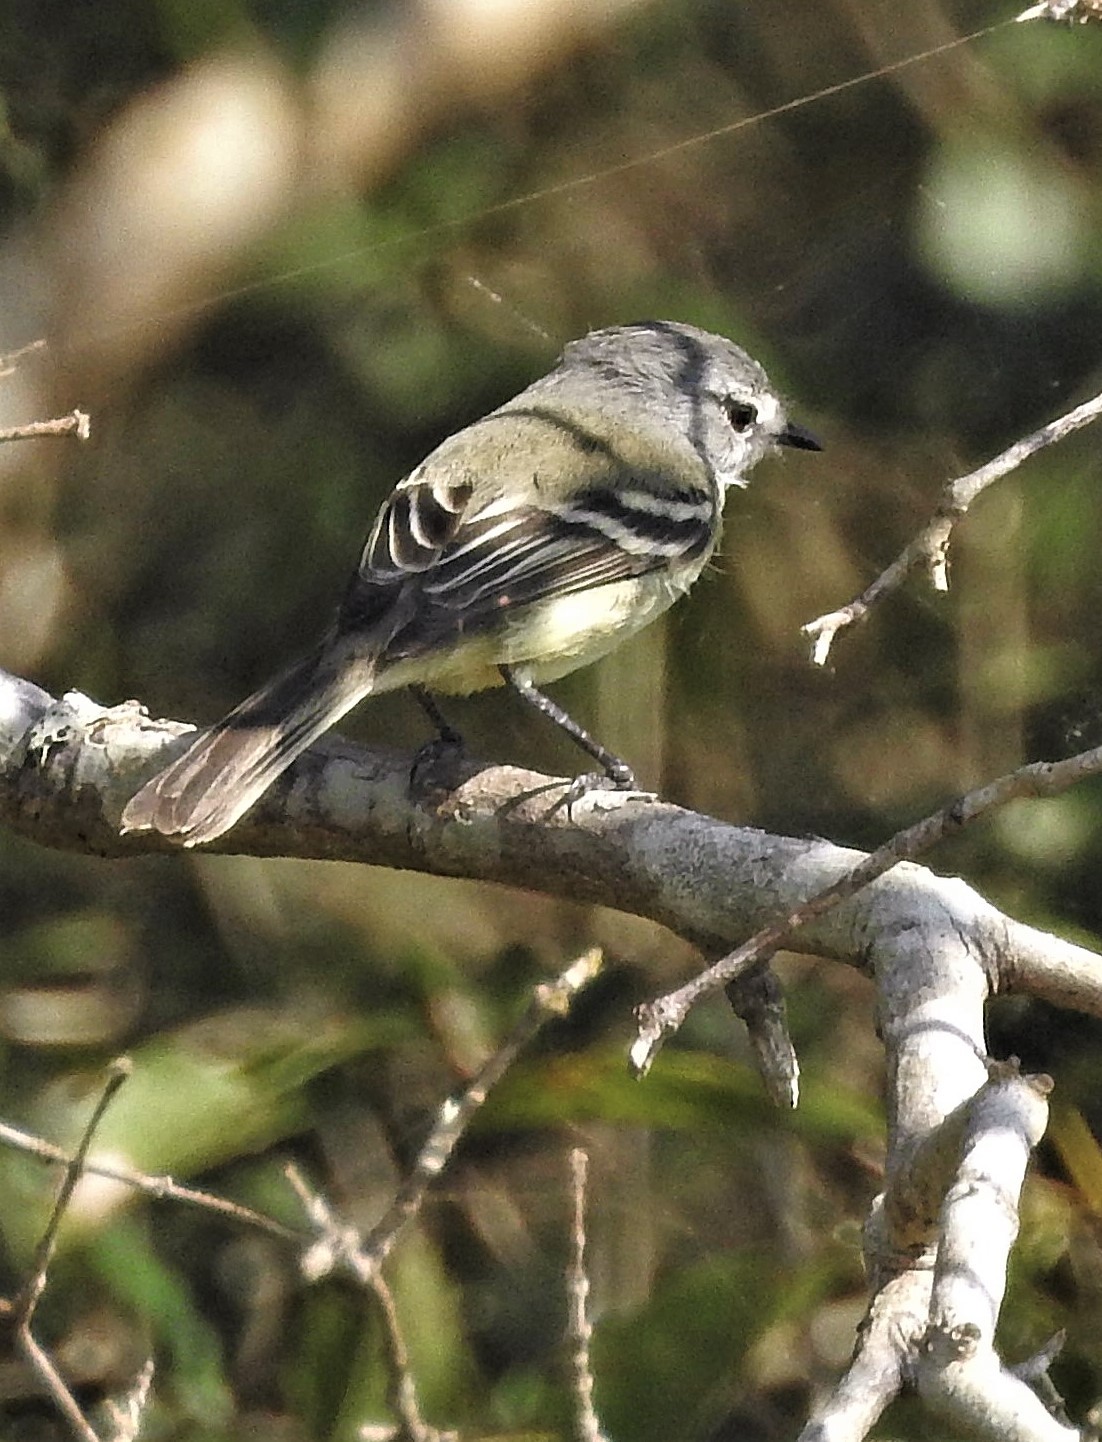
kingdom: Animalia
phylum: Chordata
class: Aves
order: Passeriformes
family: Tyrannidae
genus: Serpophaga
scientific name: Serpophaga subcristata
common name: White-crested tyrannulet
